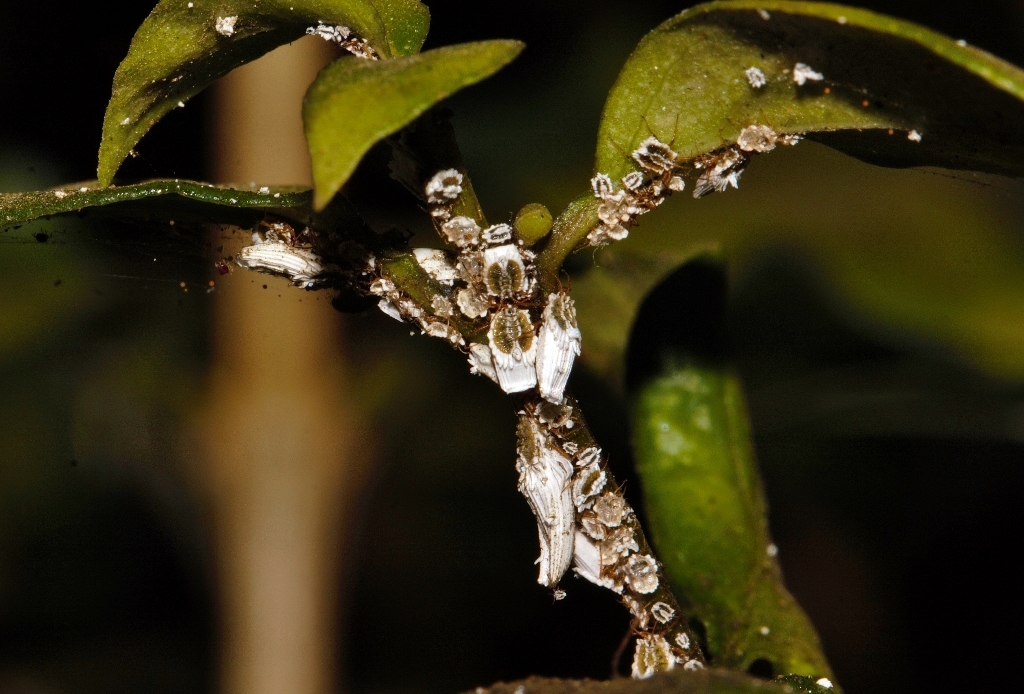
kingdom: Animalia
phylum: Arthropoda
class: Insecta
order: Hemiptera
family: Ortheziidae
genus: Insignorthezia
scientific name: Insignorthezia insignis
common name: Greenhouse orthezia
